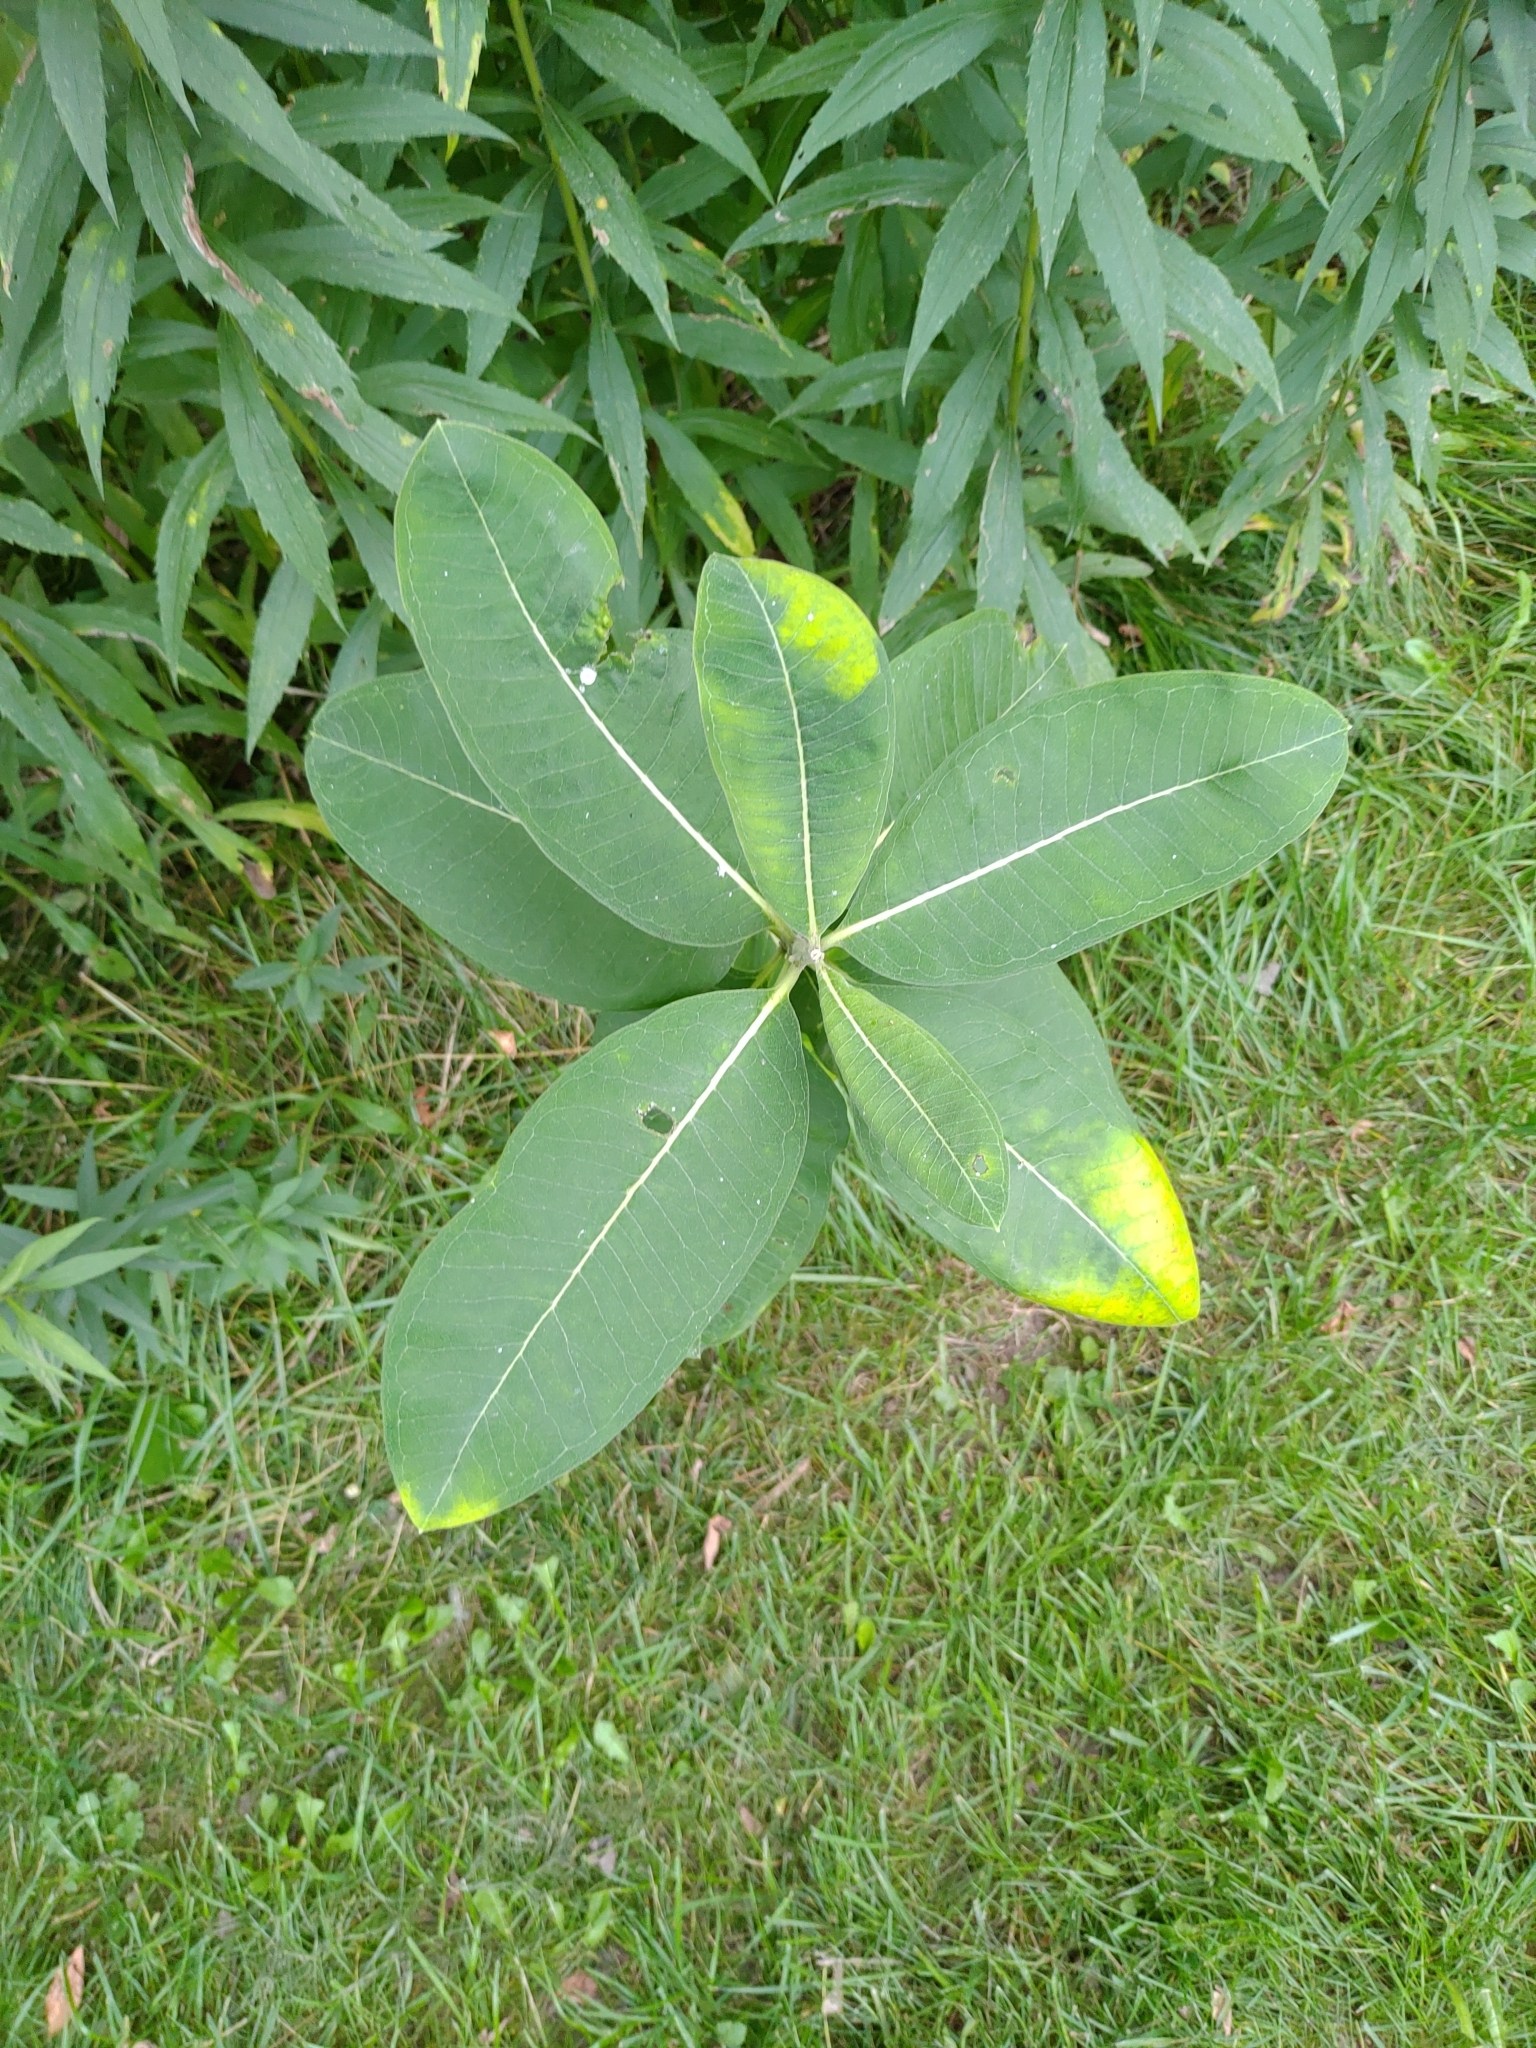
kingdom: Plantae
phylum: Tracheophyta
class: Magnoliopsida
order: Gentianales
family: Apocynaceae
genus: Asclepias
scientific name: Asclepias syriaca
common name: Common milkweed
